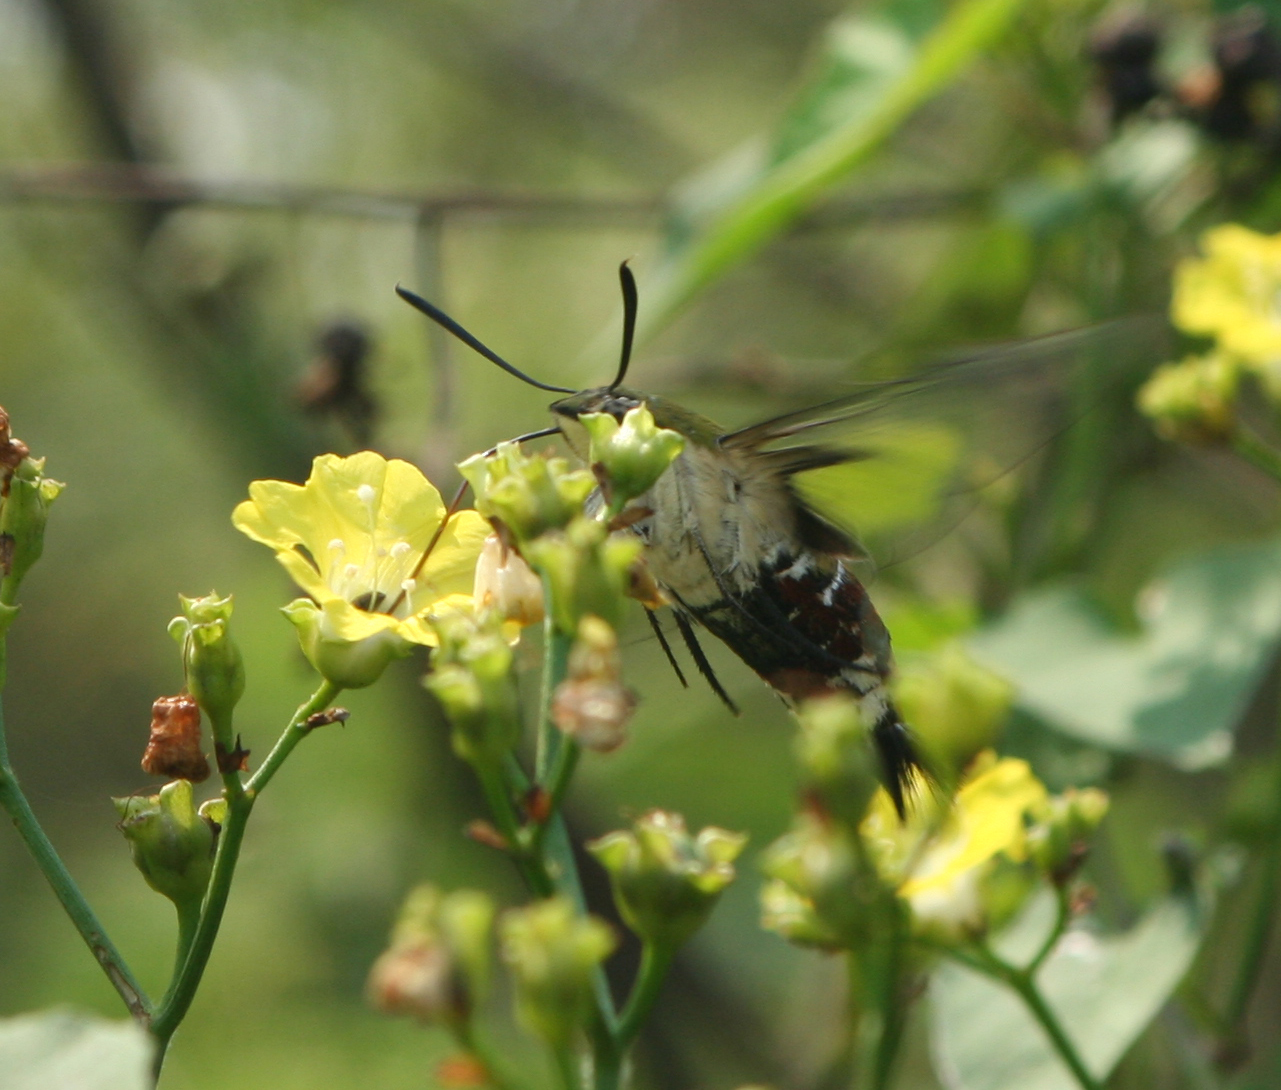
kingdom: Animalia
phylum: Arthropoda
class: Insecta
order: Lepidoptera
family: Sphingidae
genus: Cephonodes
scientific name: Cephonodes hylas
